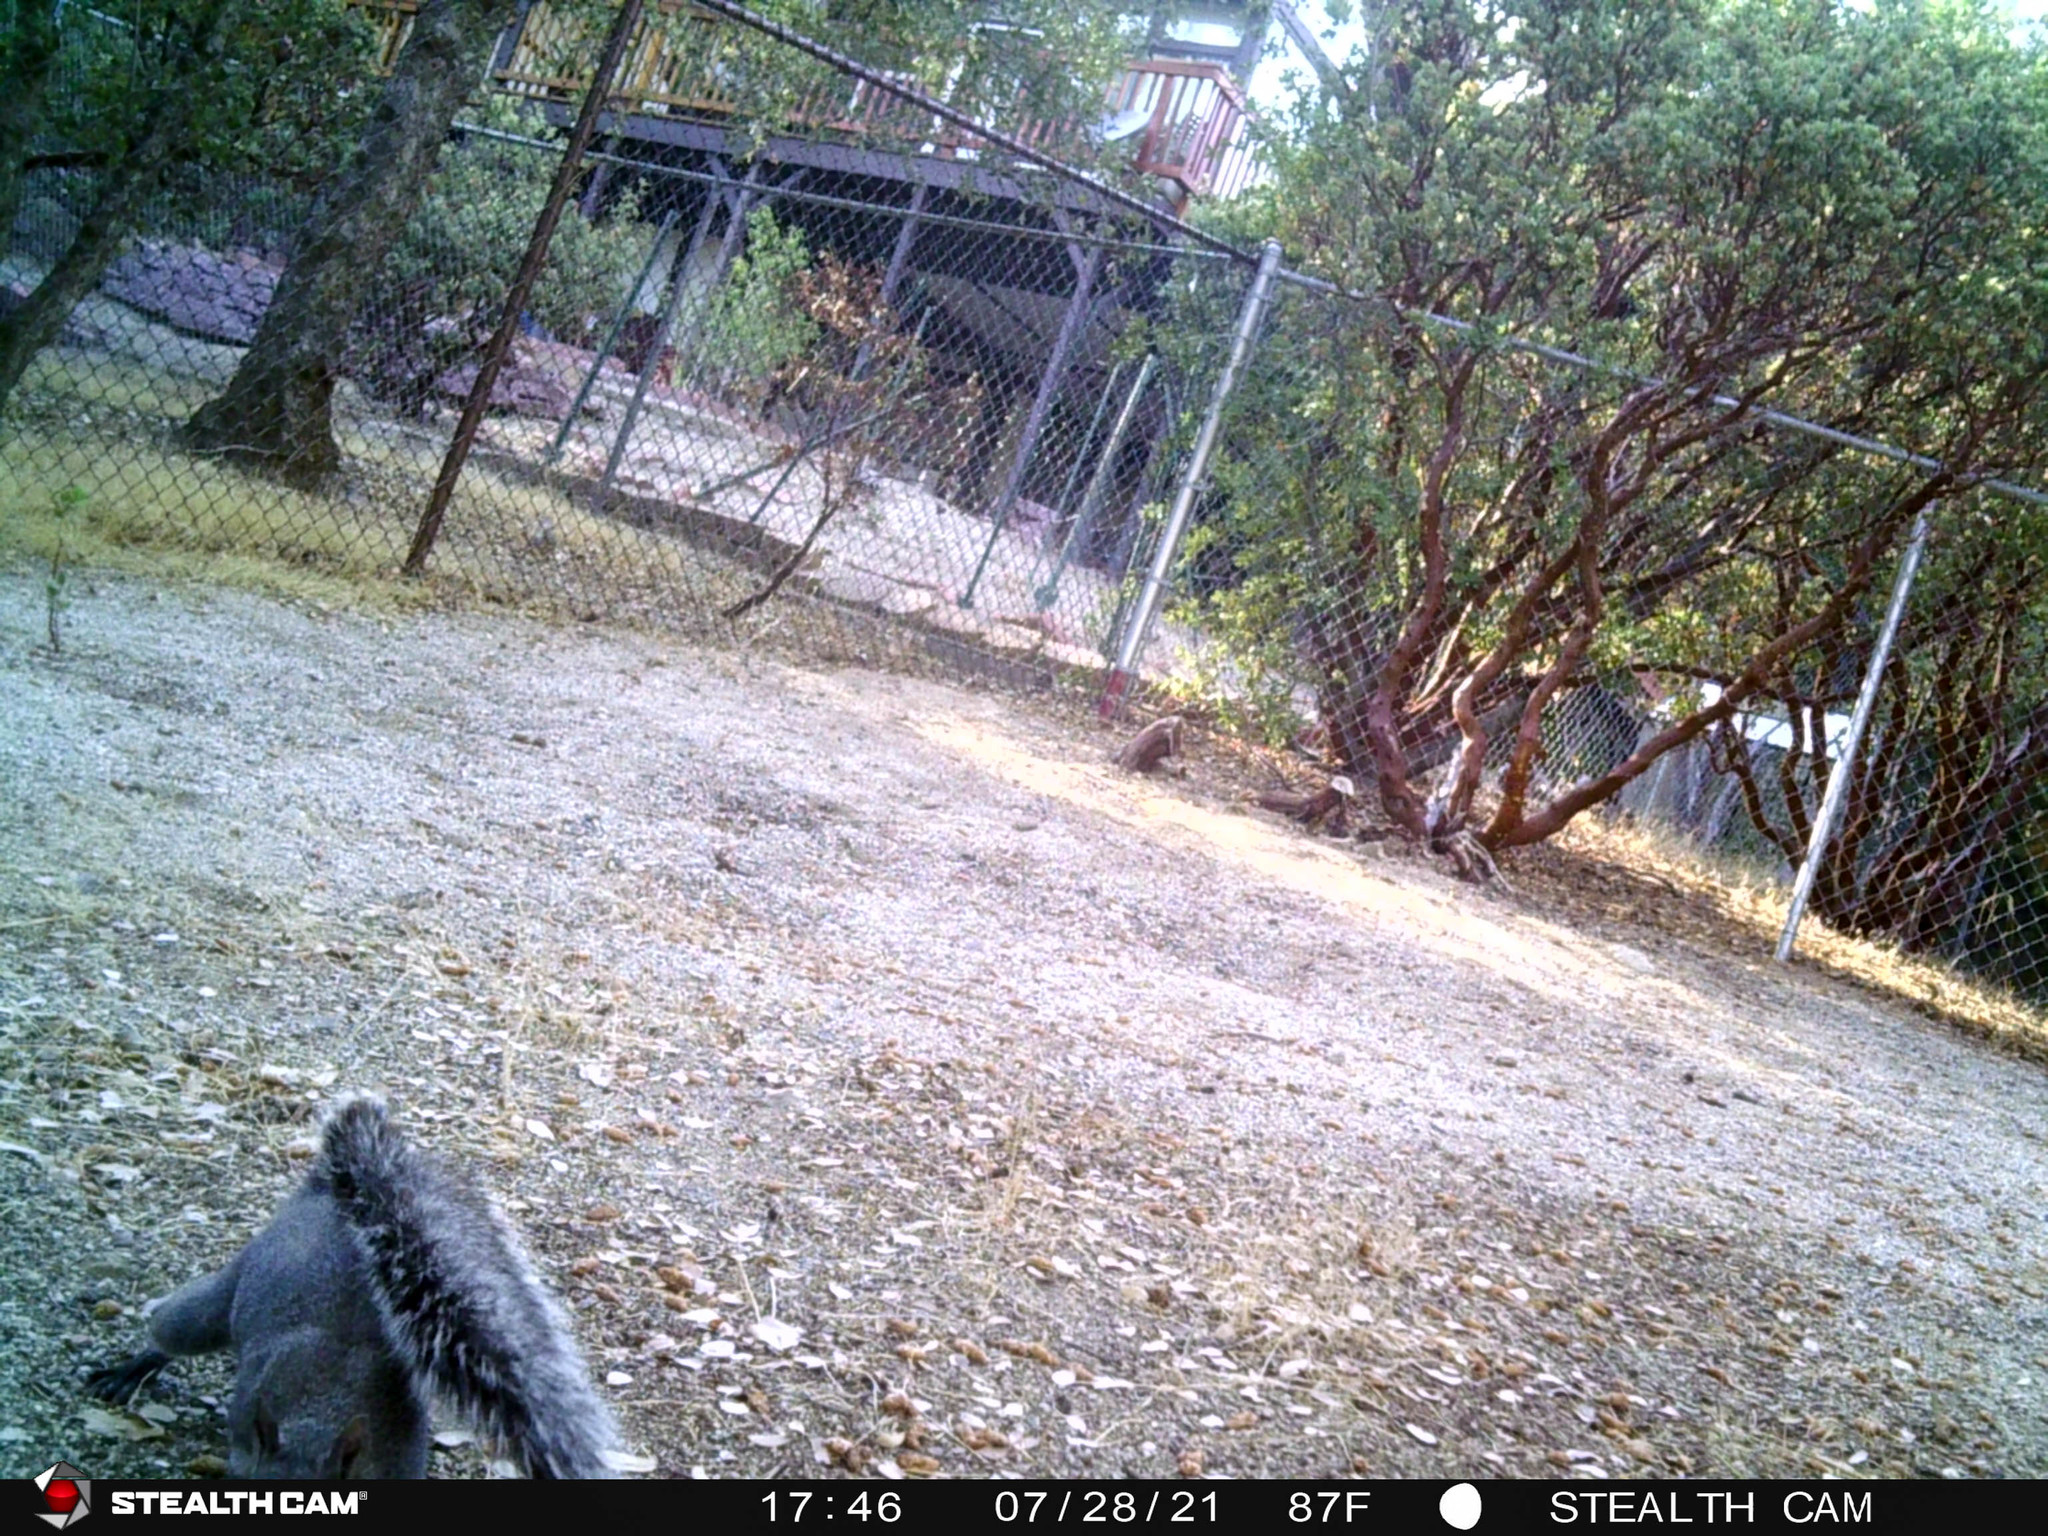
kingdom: Animalia
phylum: Chordata
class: Mammalia
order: Rodentia
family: Sciuridae
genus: Sciurus
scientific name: Sciurus griseus
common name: Western gray squirrel
